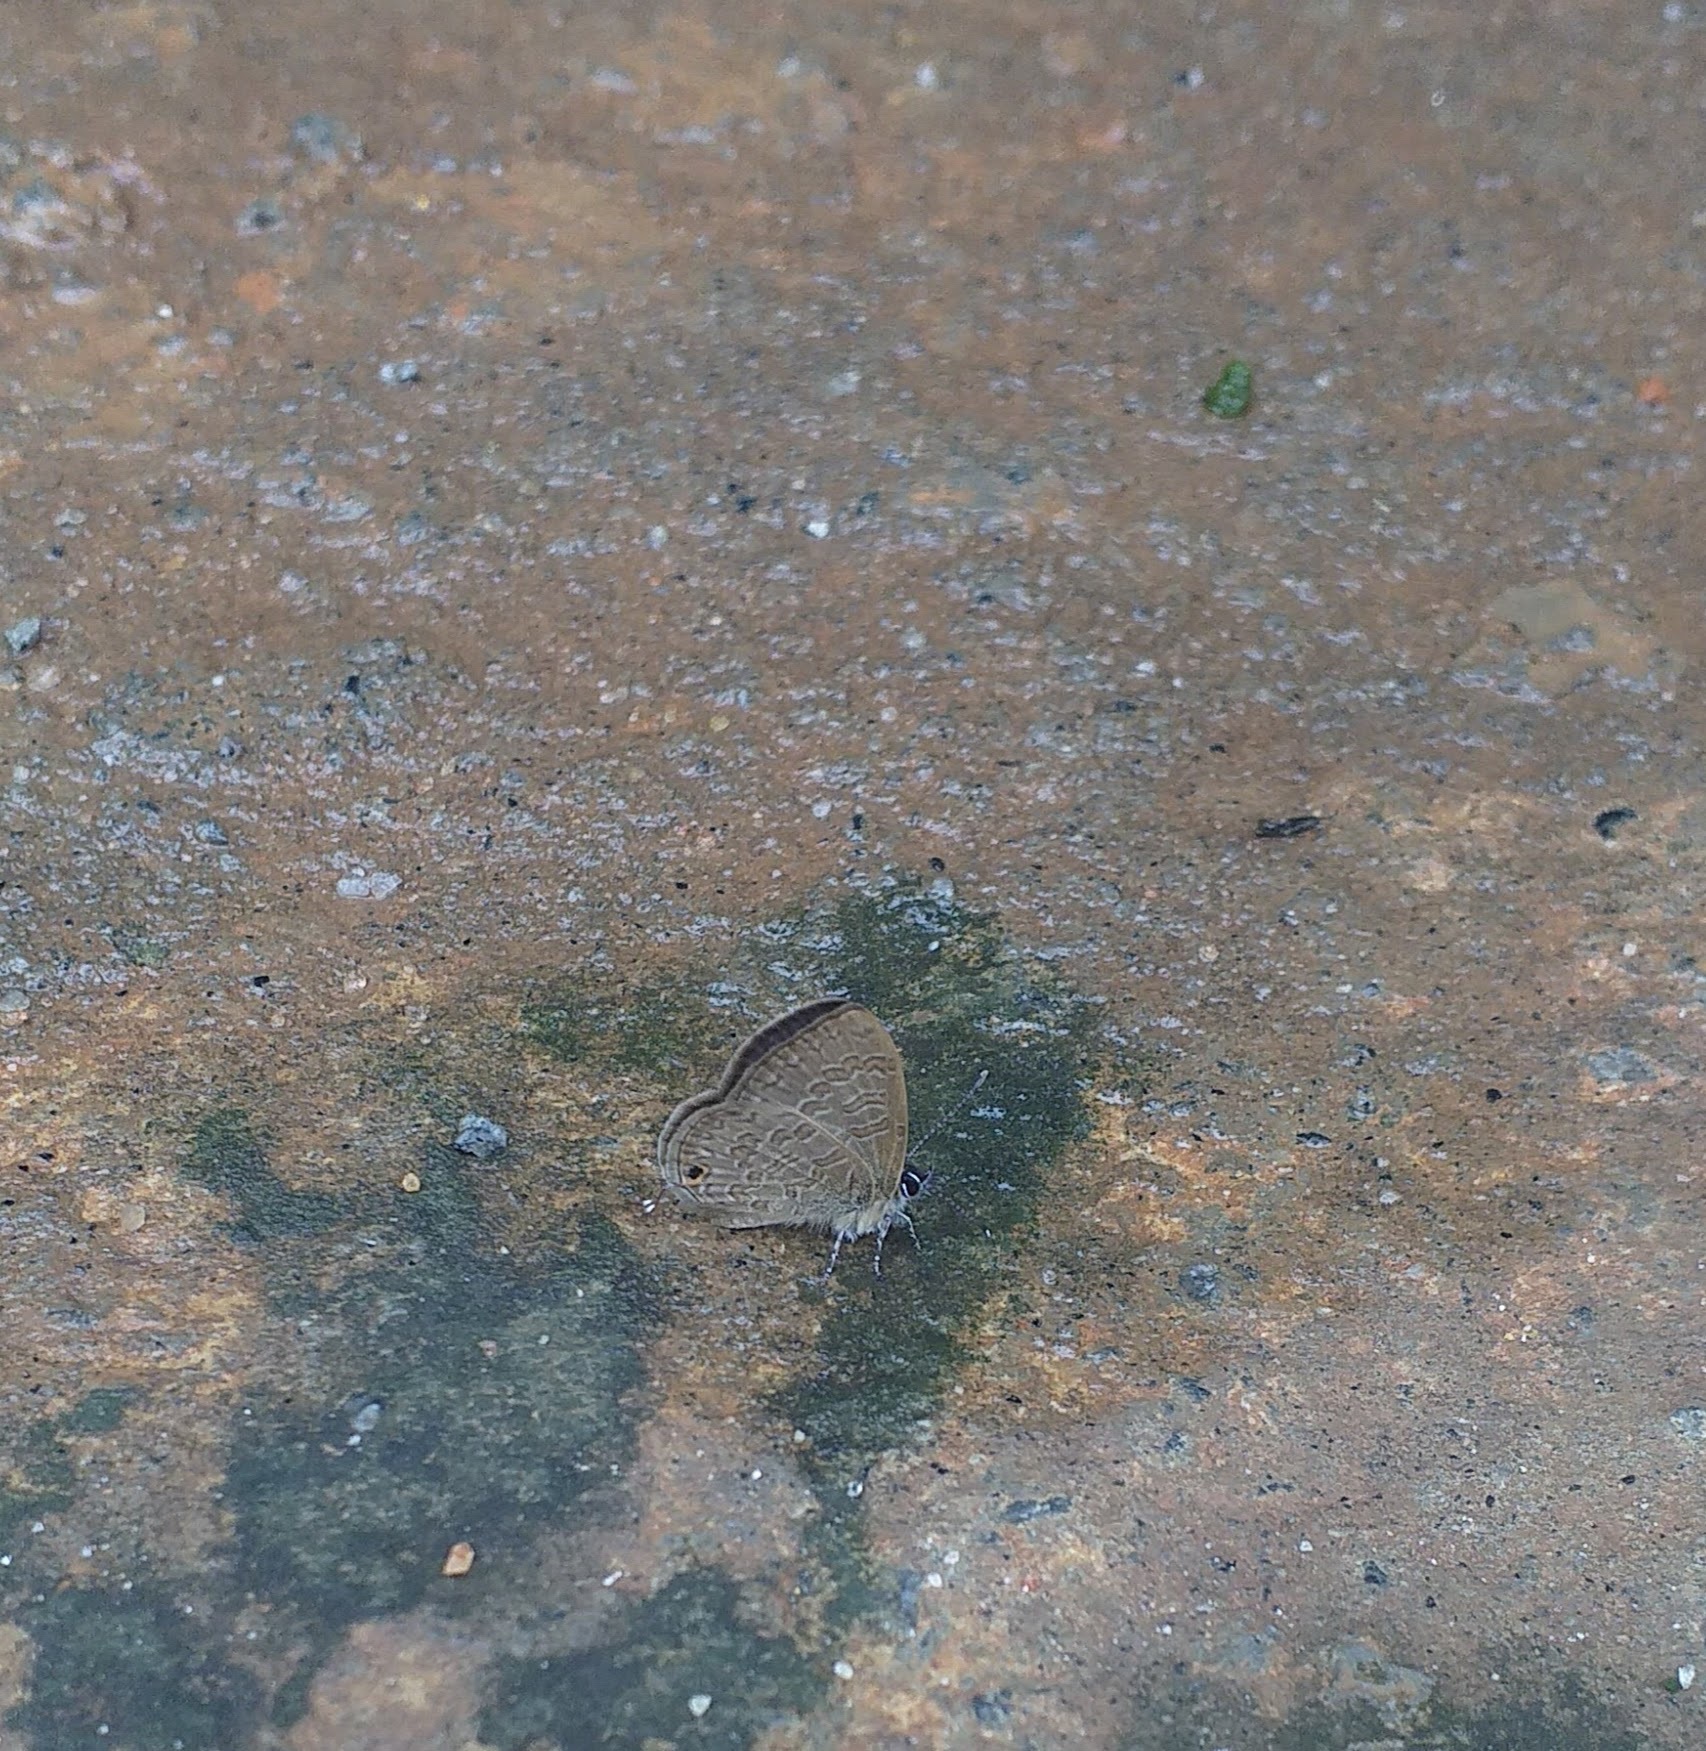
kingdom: Animalia
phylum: Arthropoda
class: Insecta
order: Lepidoptera
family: Lycaenidae
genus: Prosotas
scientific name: Prosotas nora
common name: Common line blue
